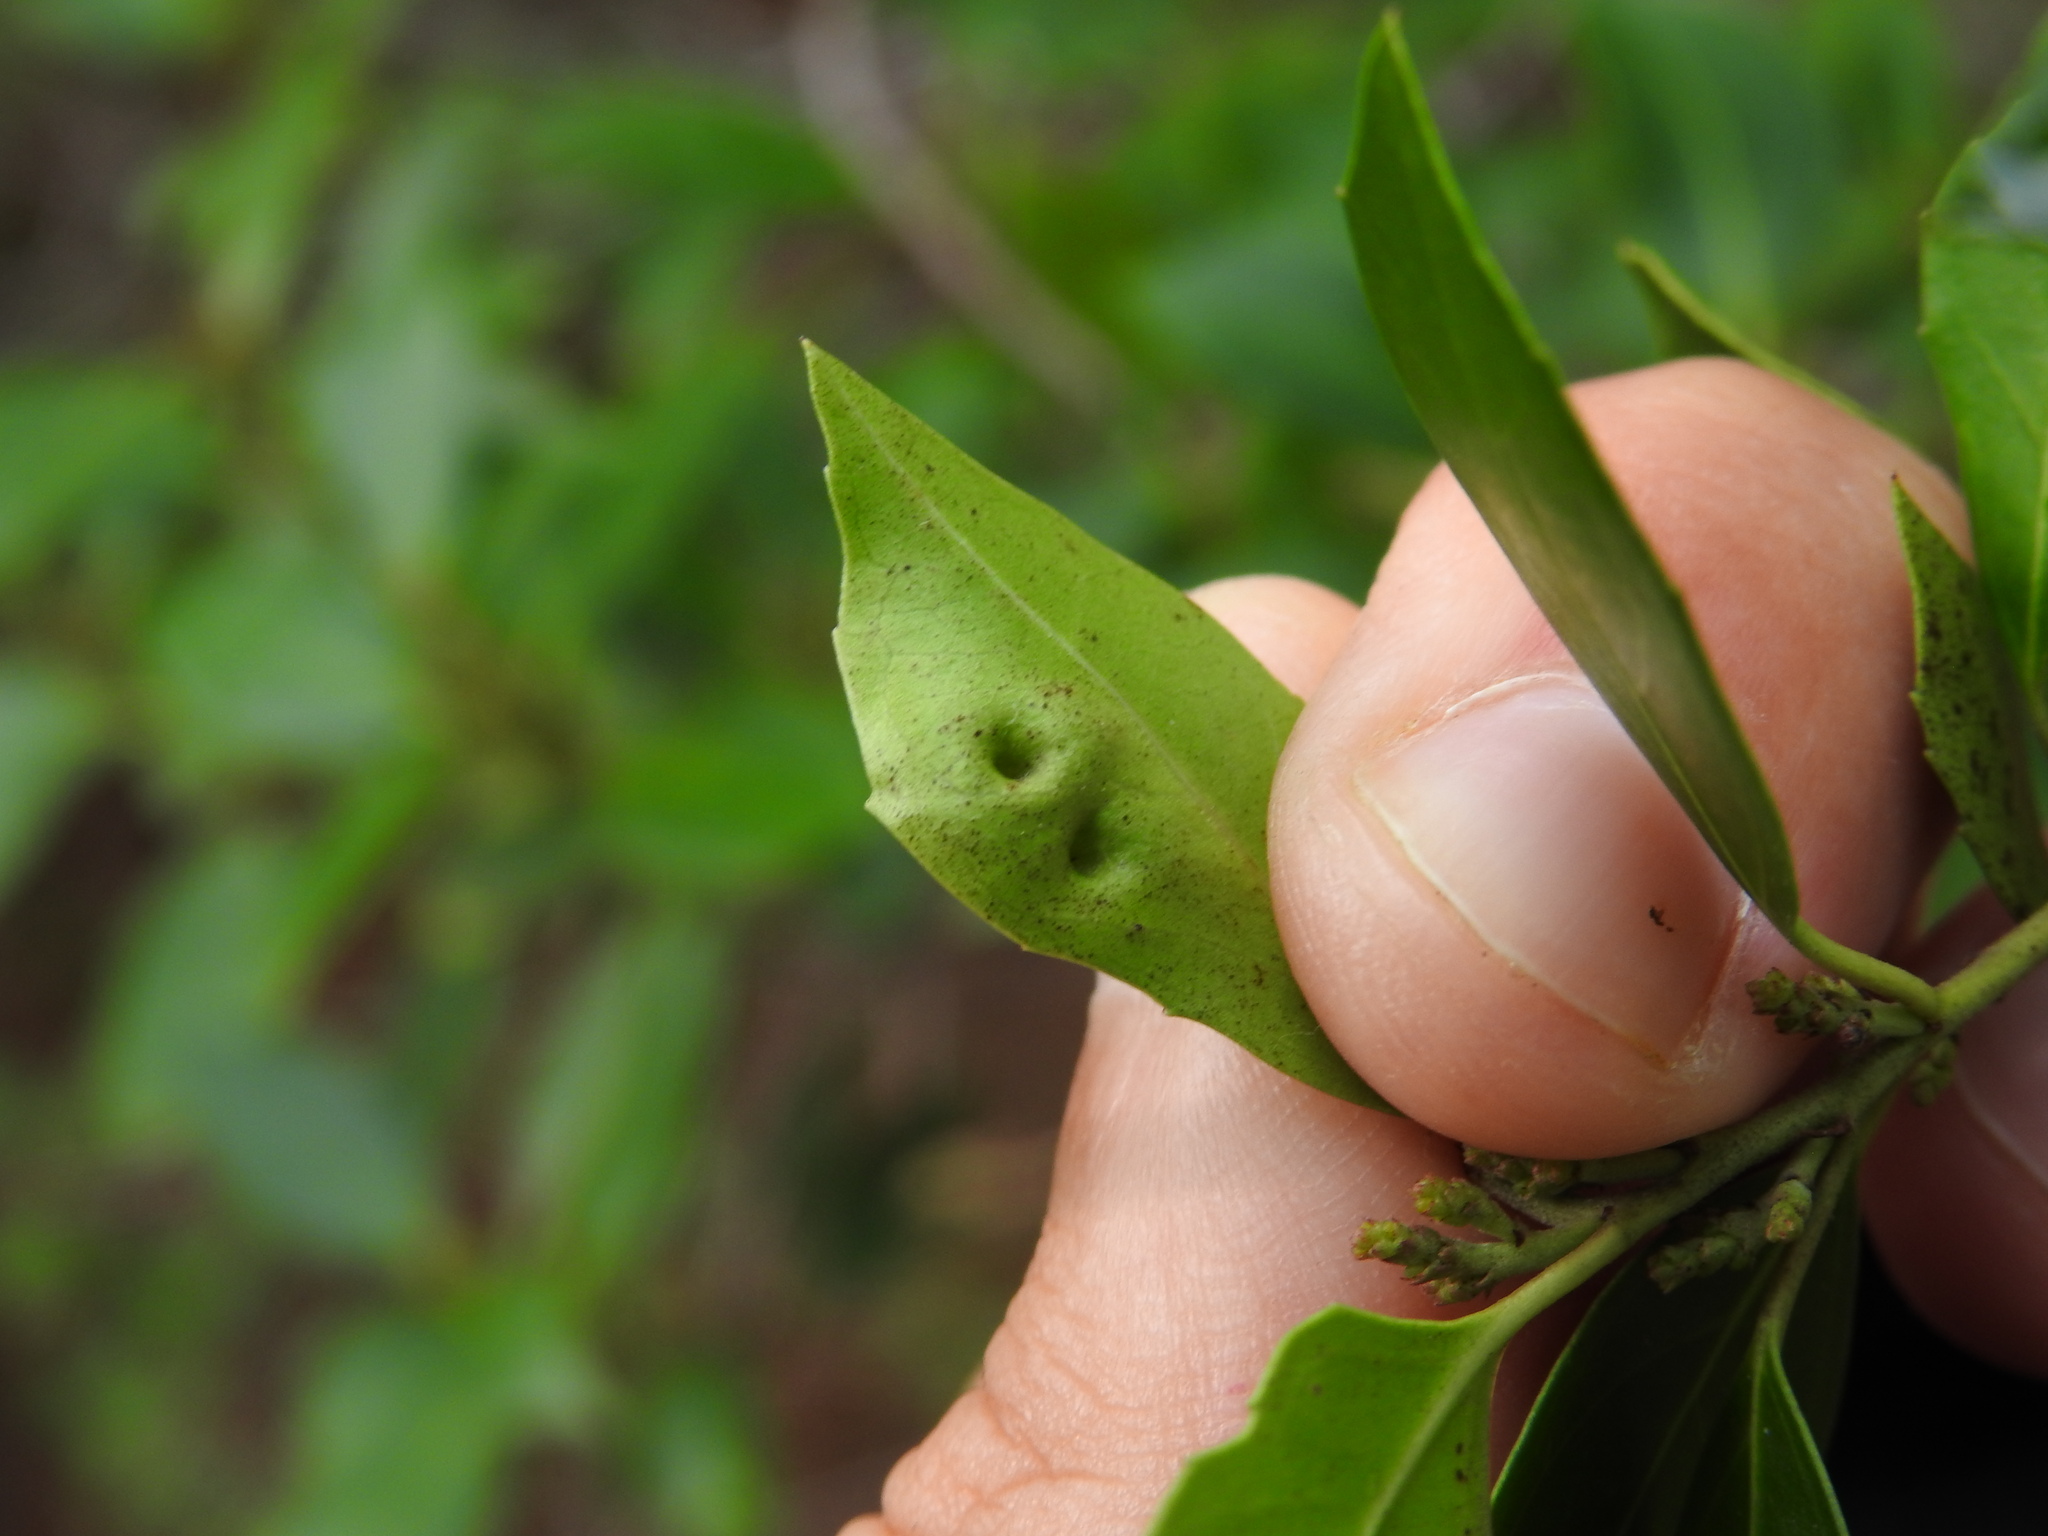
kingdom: Animalia
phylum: Arthropoda
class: Insecta
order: Hemiptera
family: Triozidae
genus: Trioza
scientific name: Trioza kiefferi
